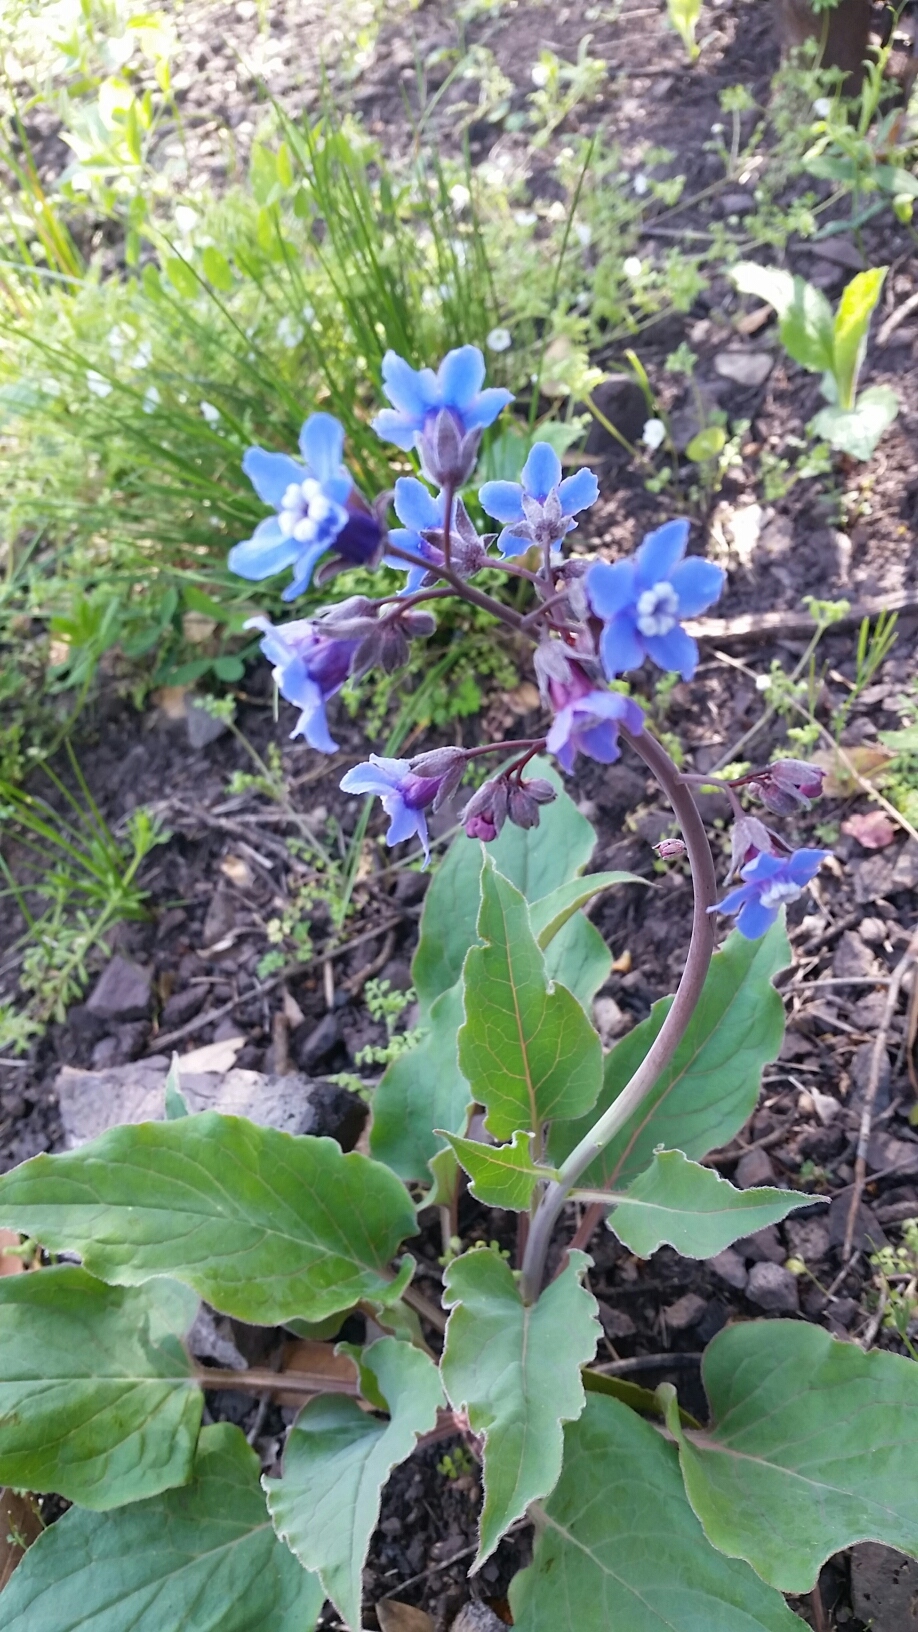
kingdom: Plantae
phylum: Tracheophyta
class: Magnoliopsida
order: Boraginales
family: Boraginaceae
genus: Adelinia
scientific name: Adelinia grande
